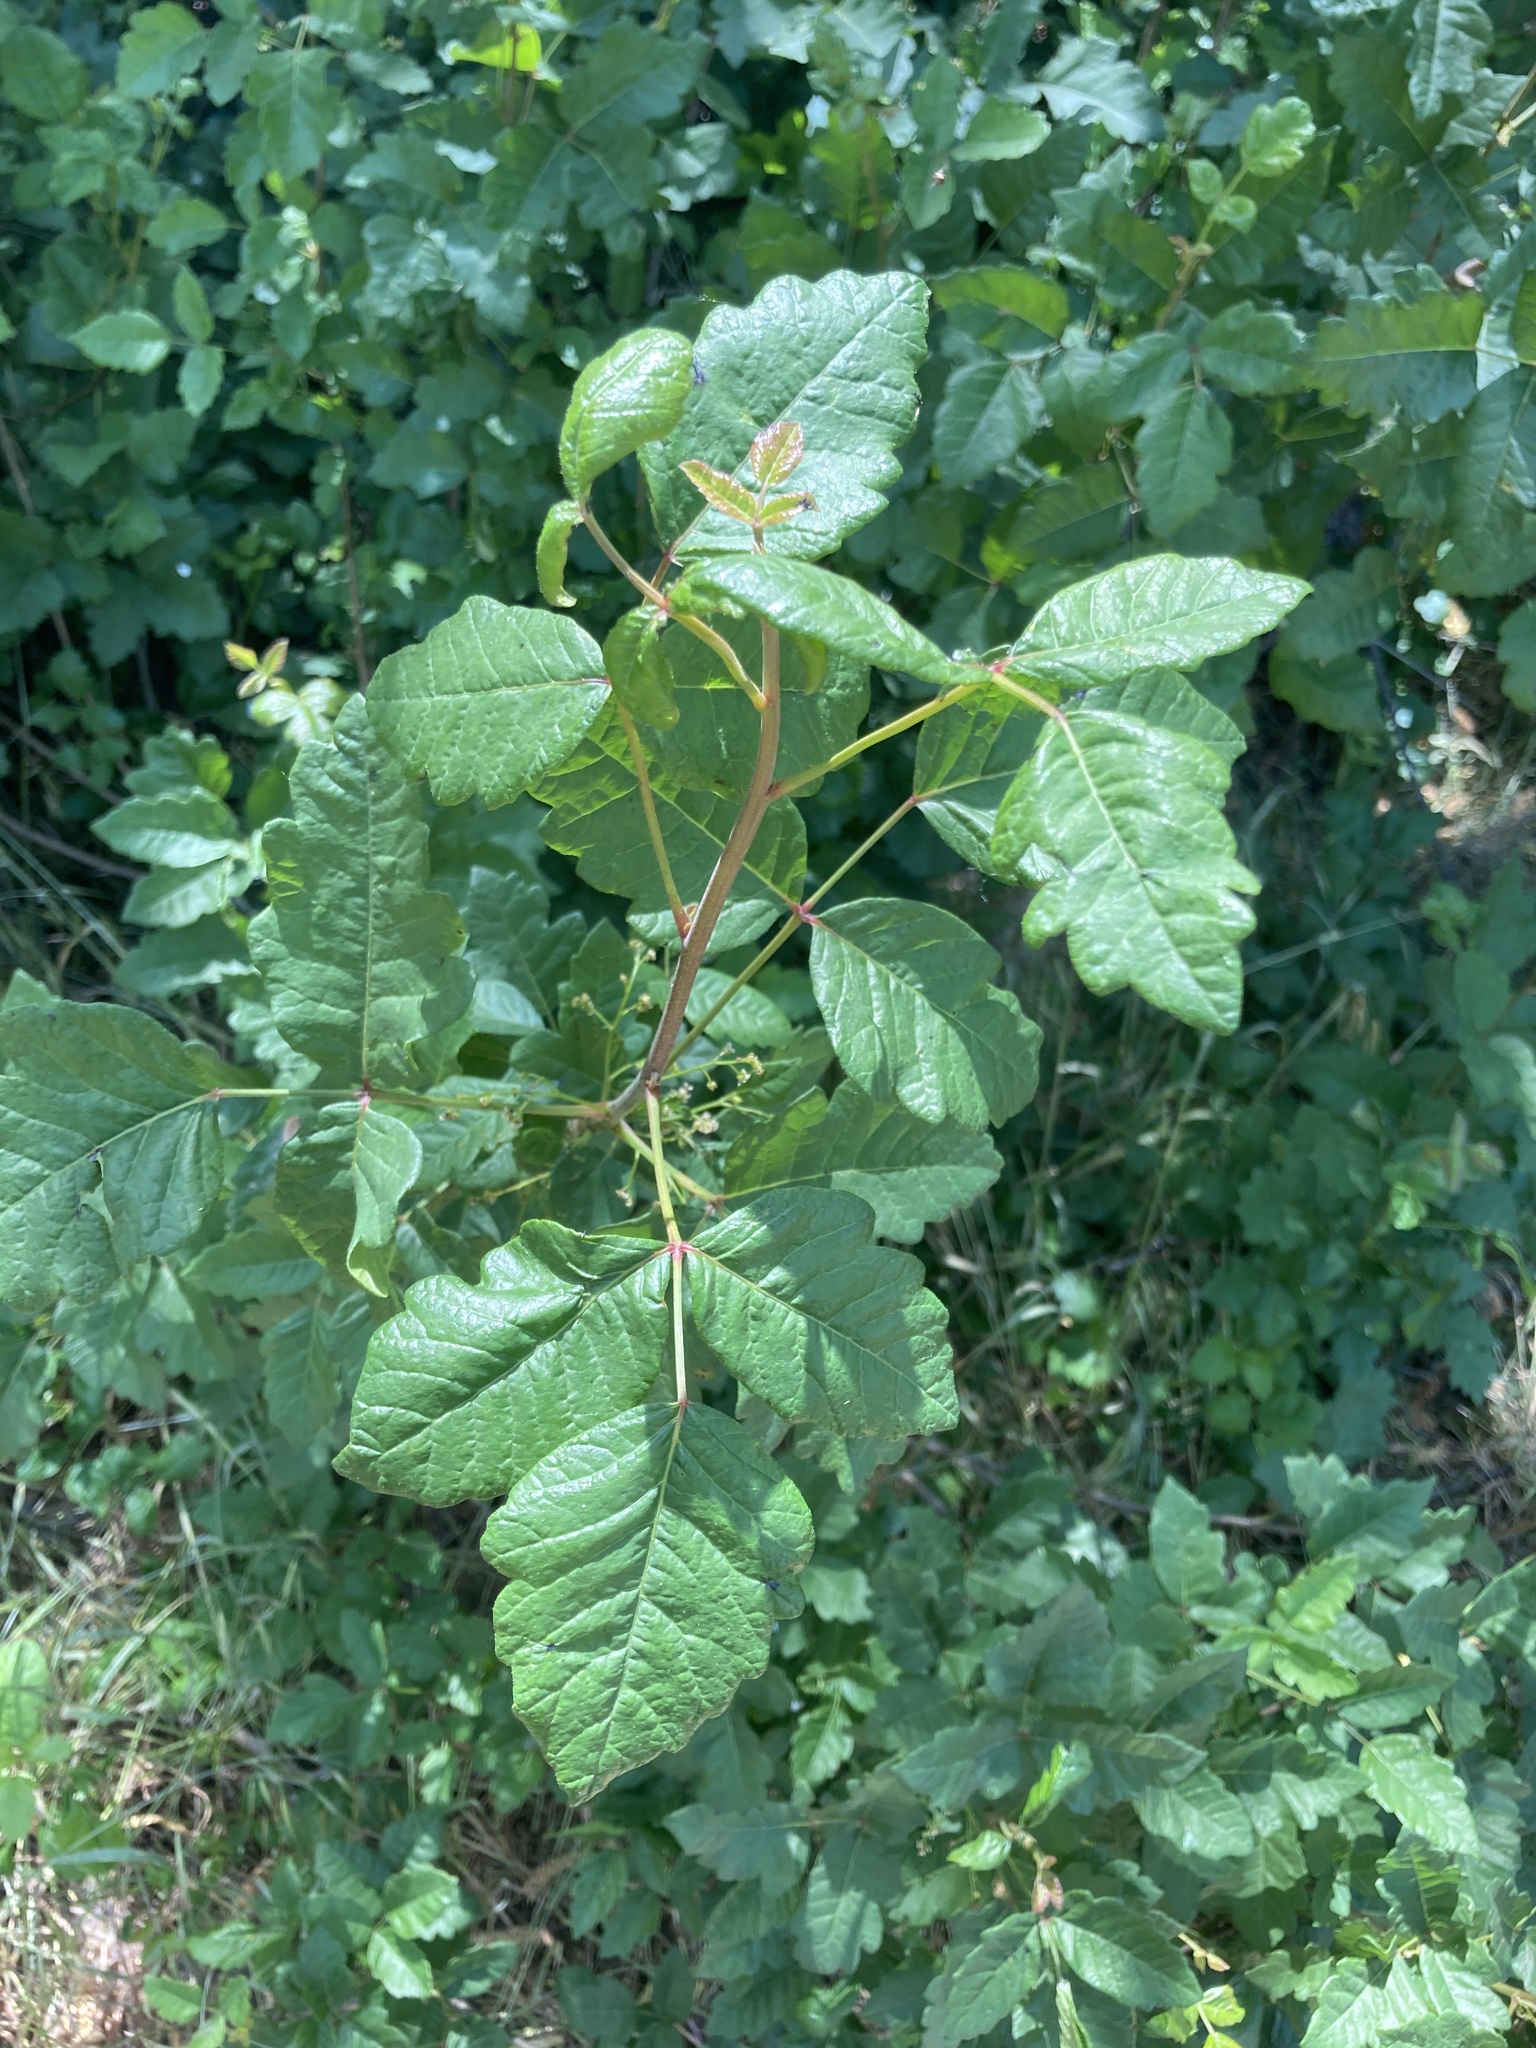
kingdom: Plantae
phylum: Tracheophyta
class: Magnoliopsida
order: Sapindales
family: Anacardiaceae
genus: Toxicodendron
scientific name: Toxicodendron diversilobum
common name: Pacific poison-oak
